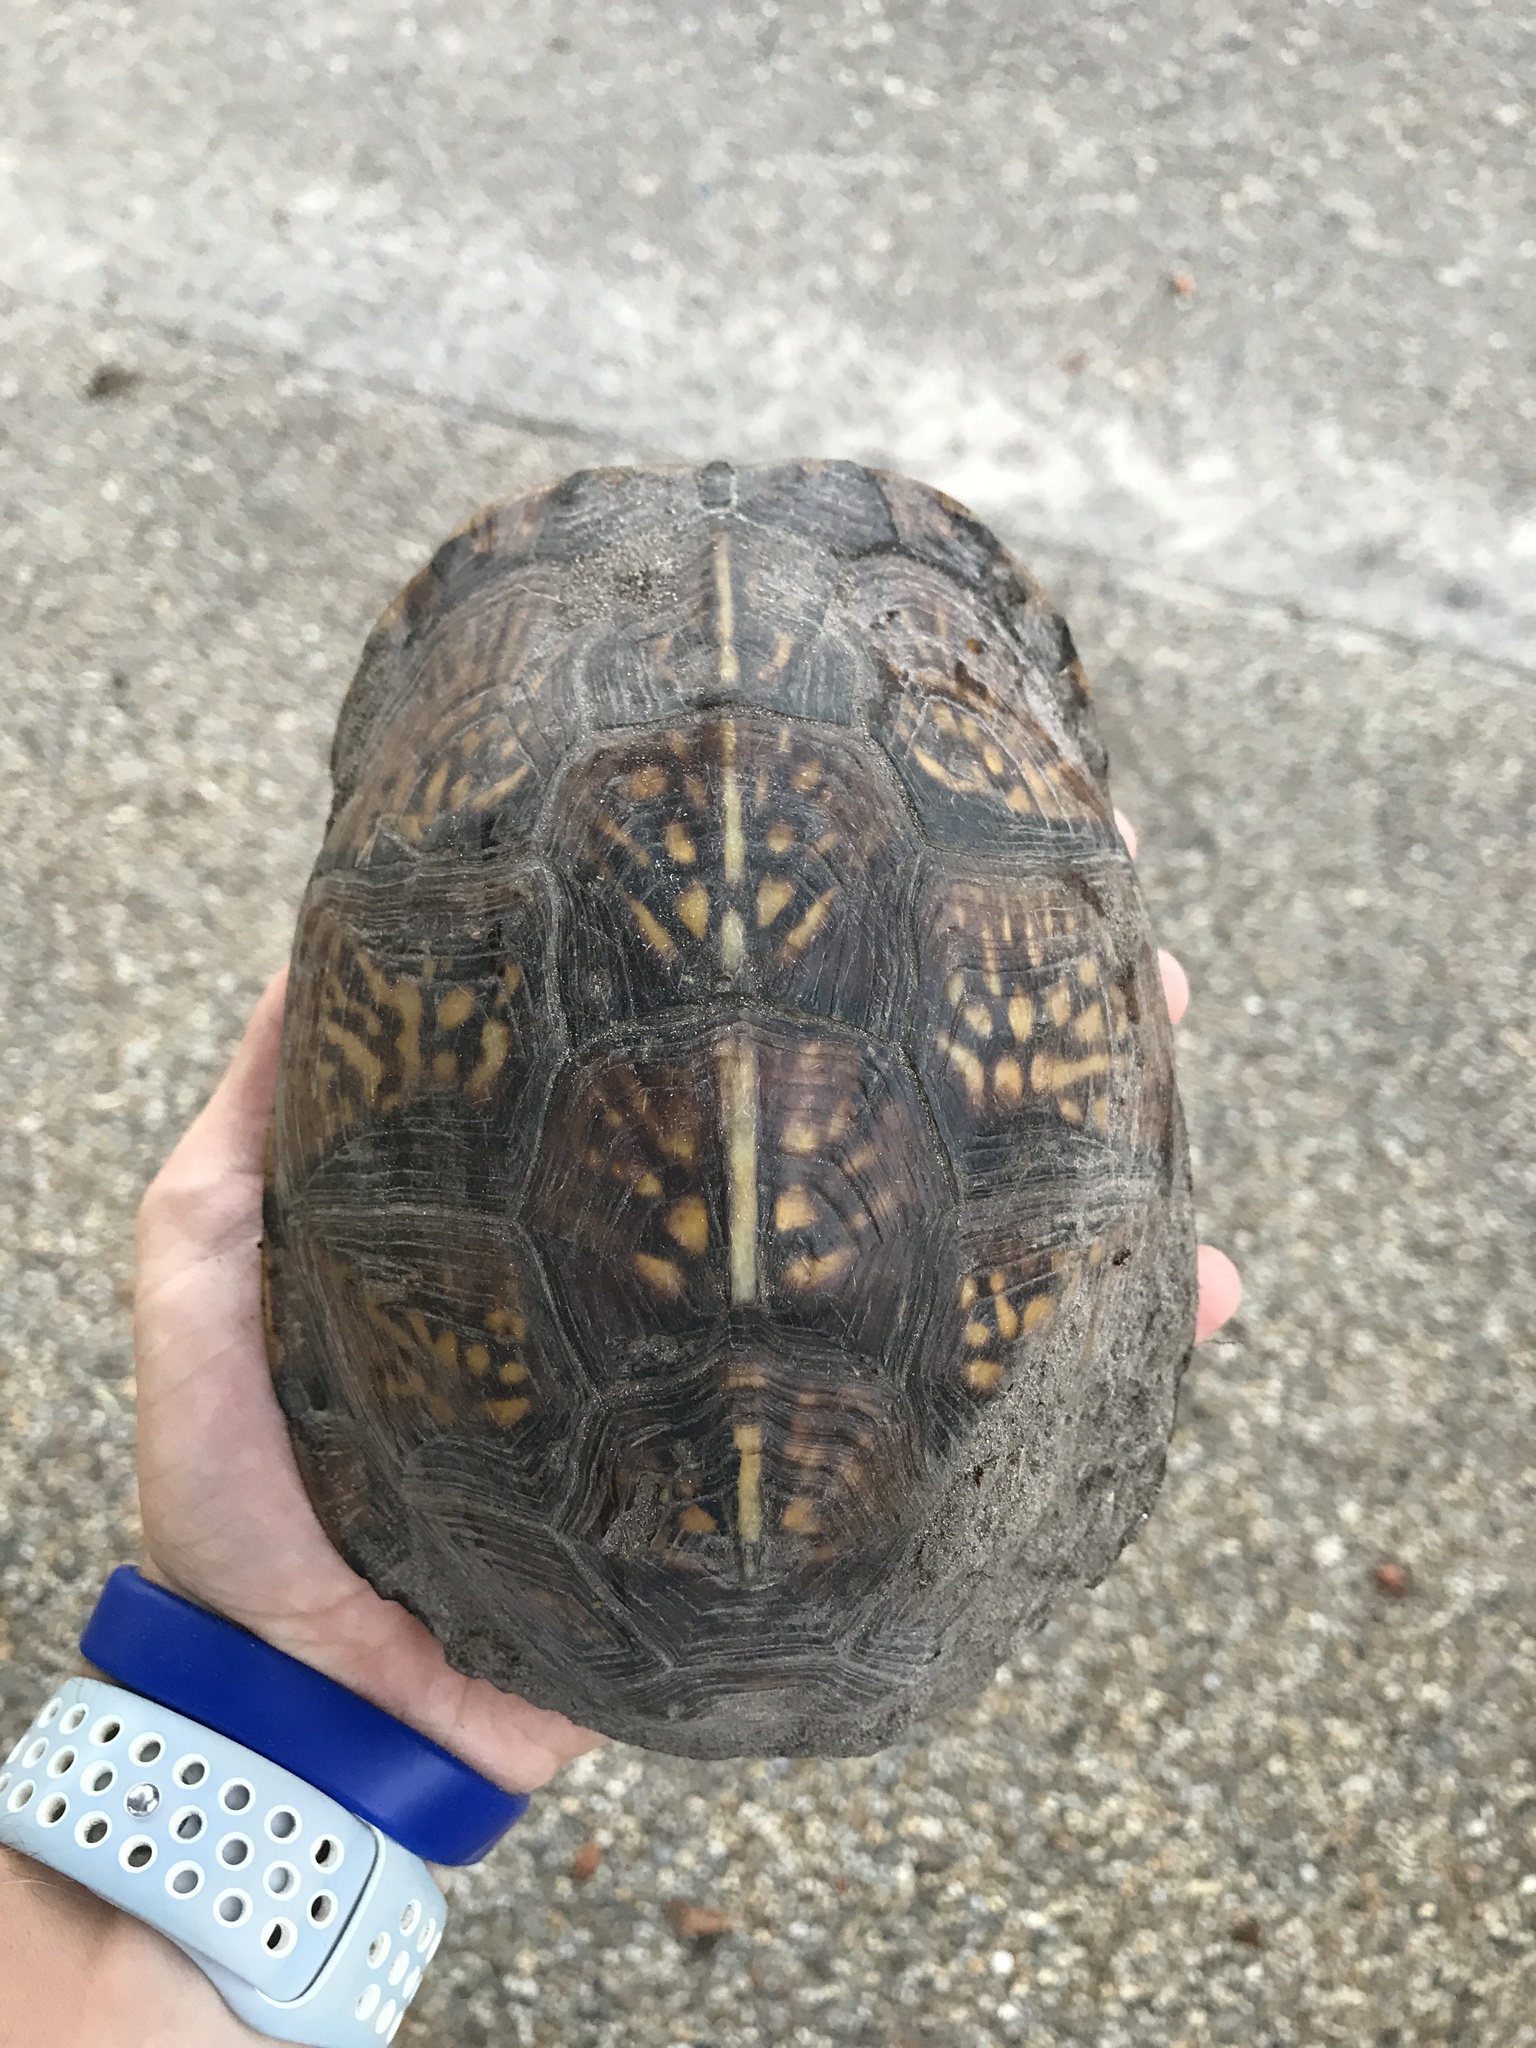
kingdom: Animalia
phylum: Chordata
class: Testudines
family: Emydidae
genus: Terrapene
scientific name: Terrapene carolina
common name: Common box turtle
